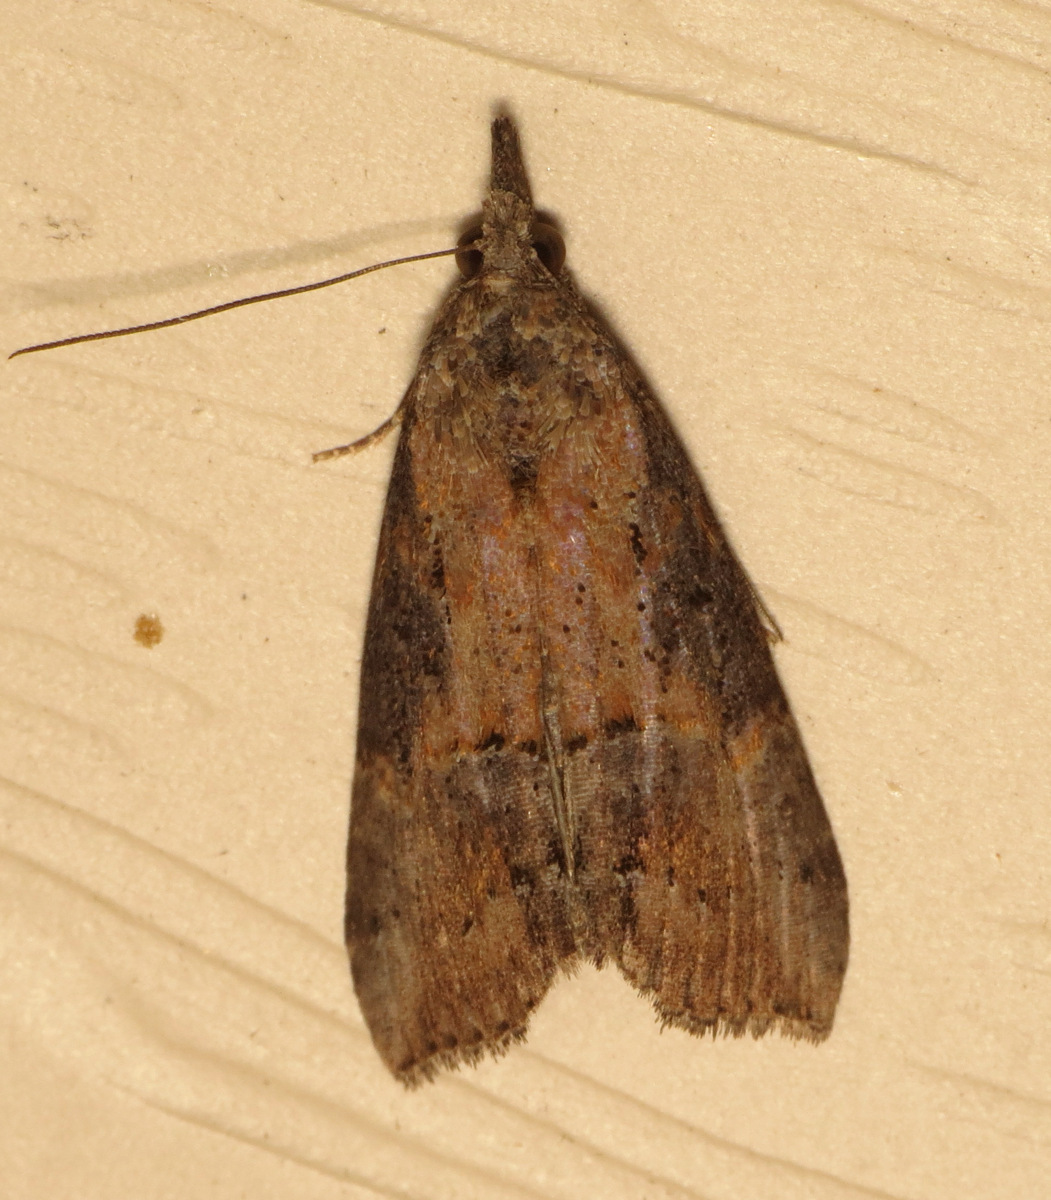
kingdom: Animalia
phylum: Arthropoda
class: Insecta
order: Lepidoptera
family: Erebidae
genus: Hypena
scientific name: Hypena scabra
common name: Green cloverworm
